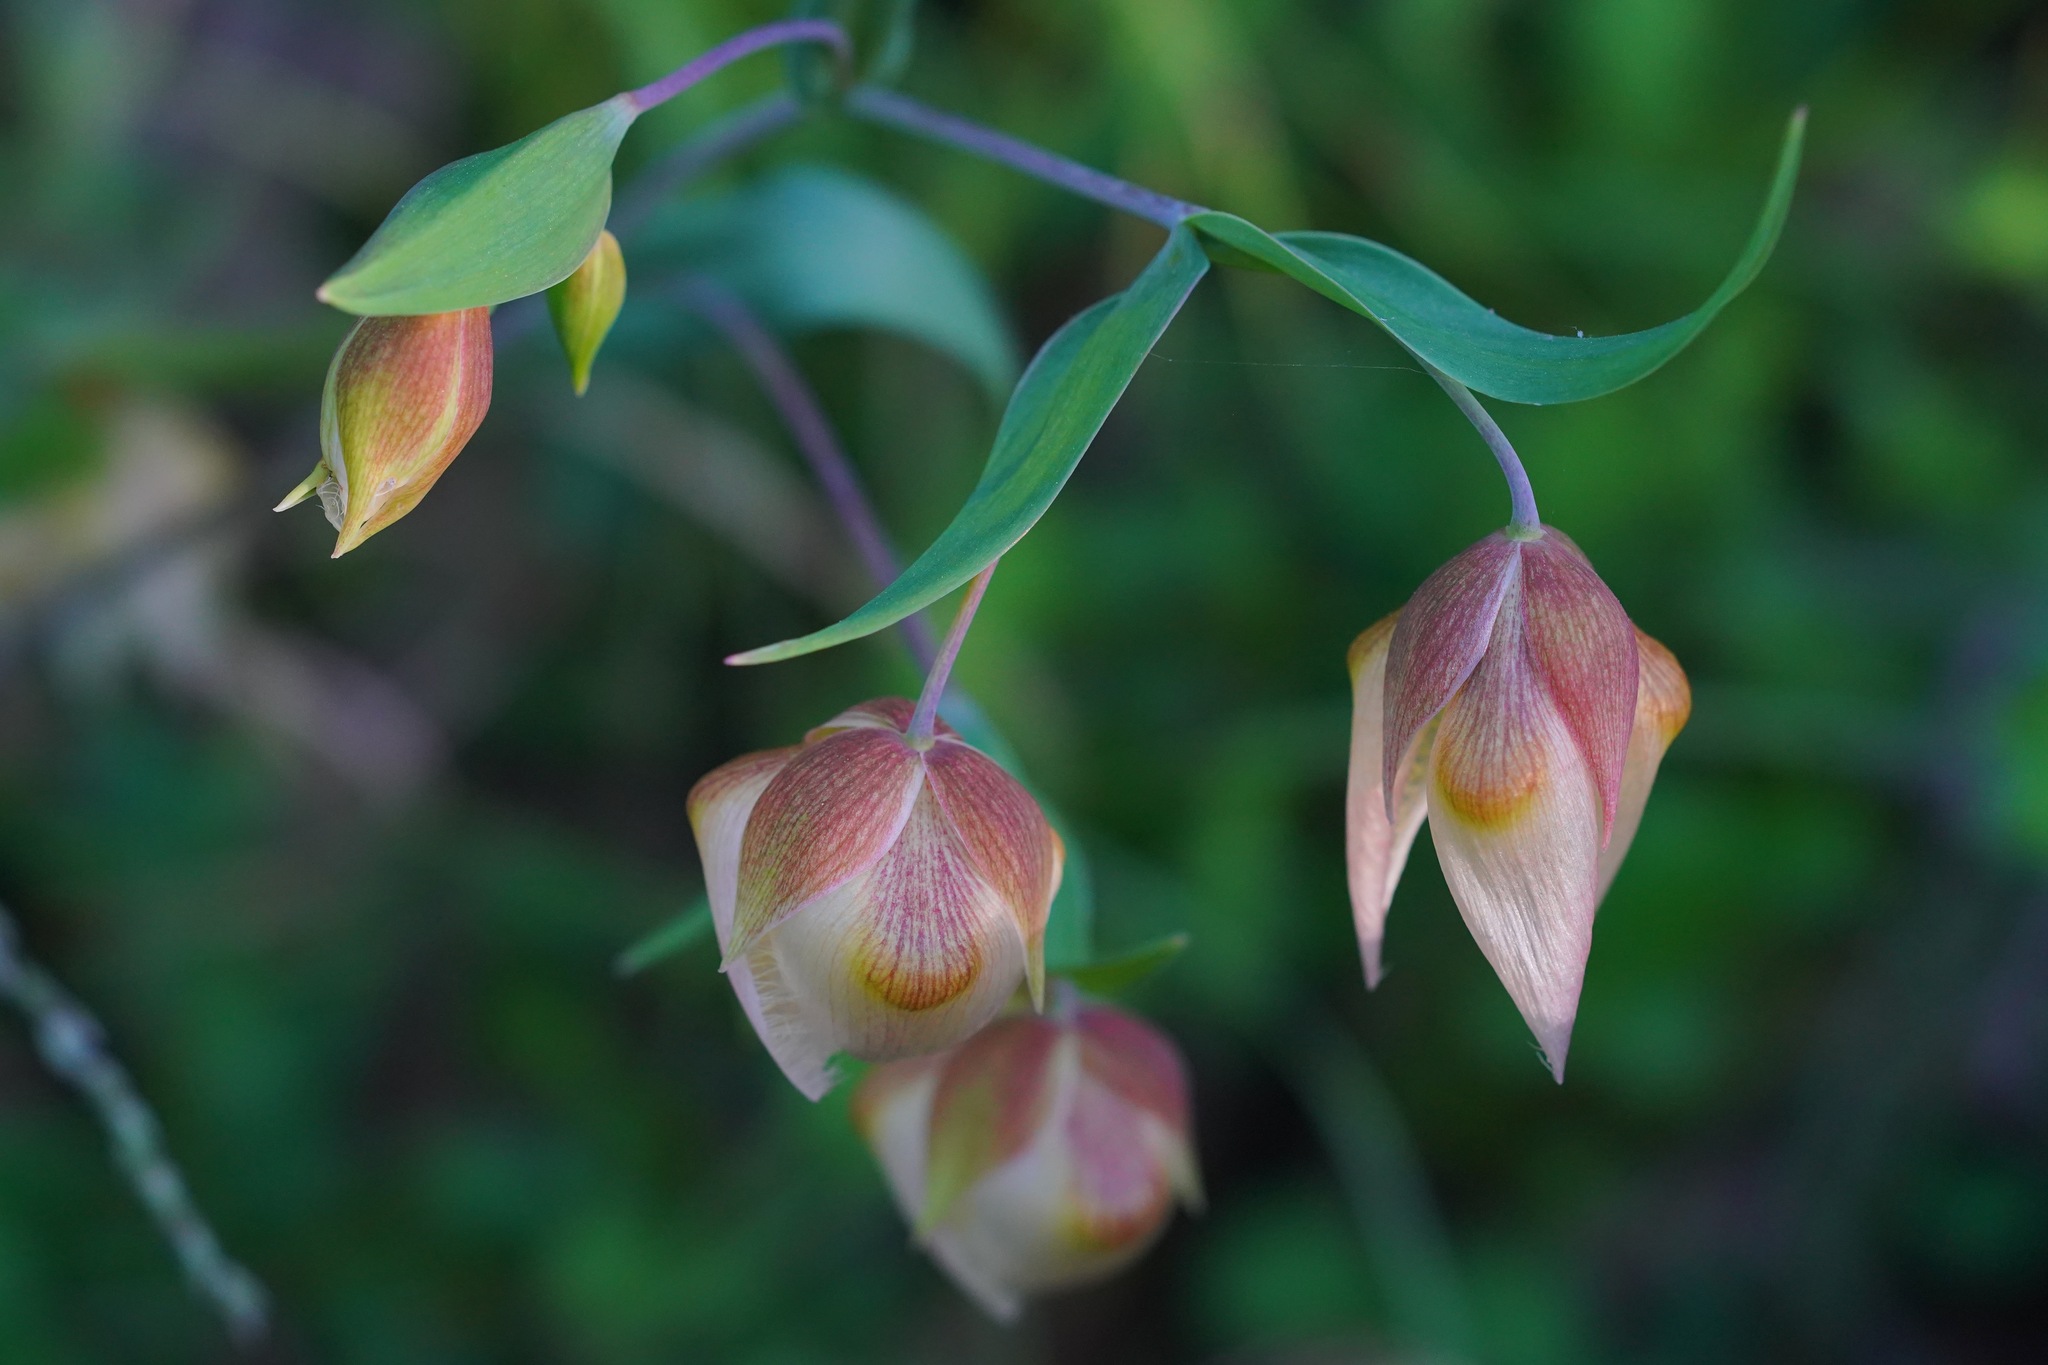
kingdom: Plantae
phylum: Tracheophyta
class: Liliopsida
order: Liliales
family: Liliaceae
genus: Calochortus
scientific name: Calochortus albus
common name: Fairy-lantern
